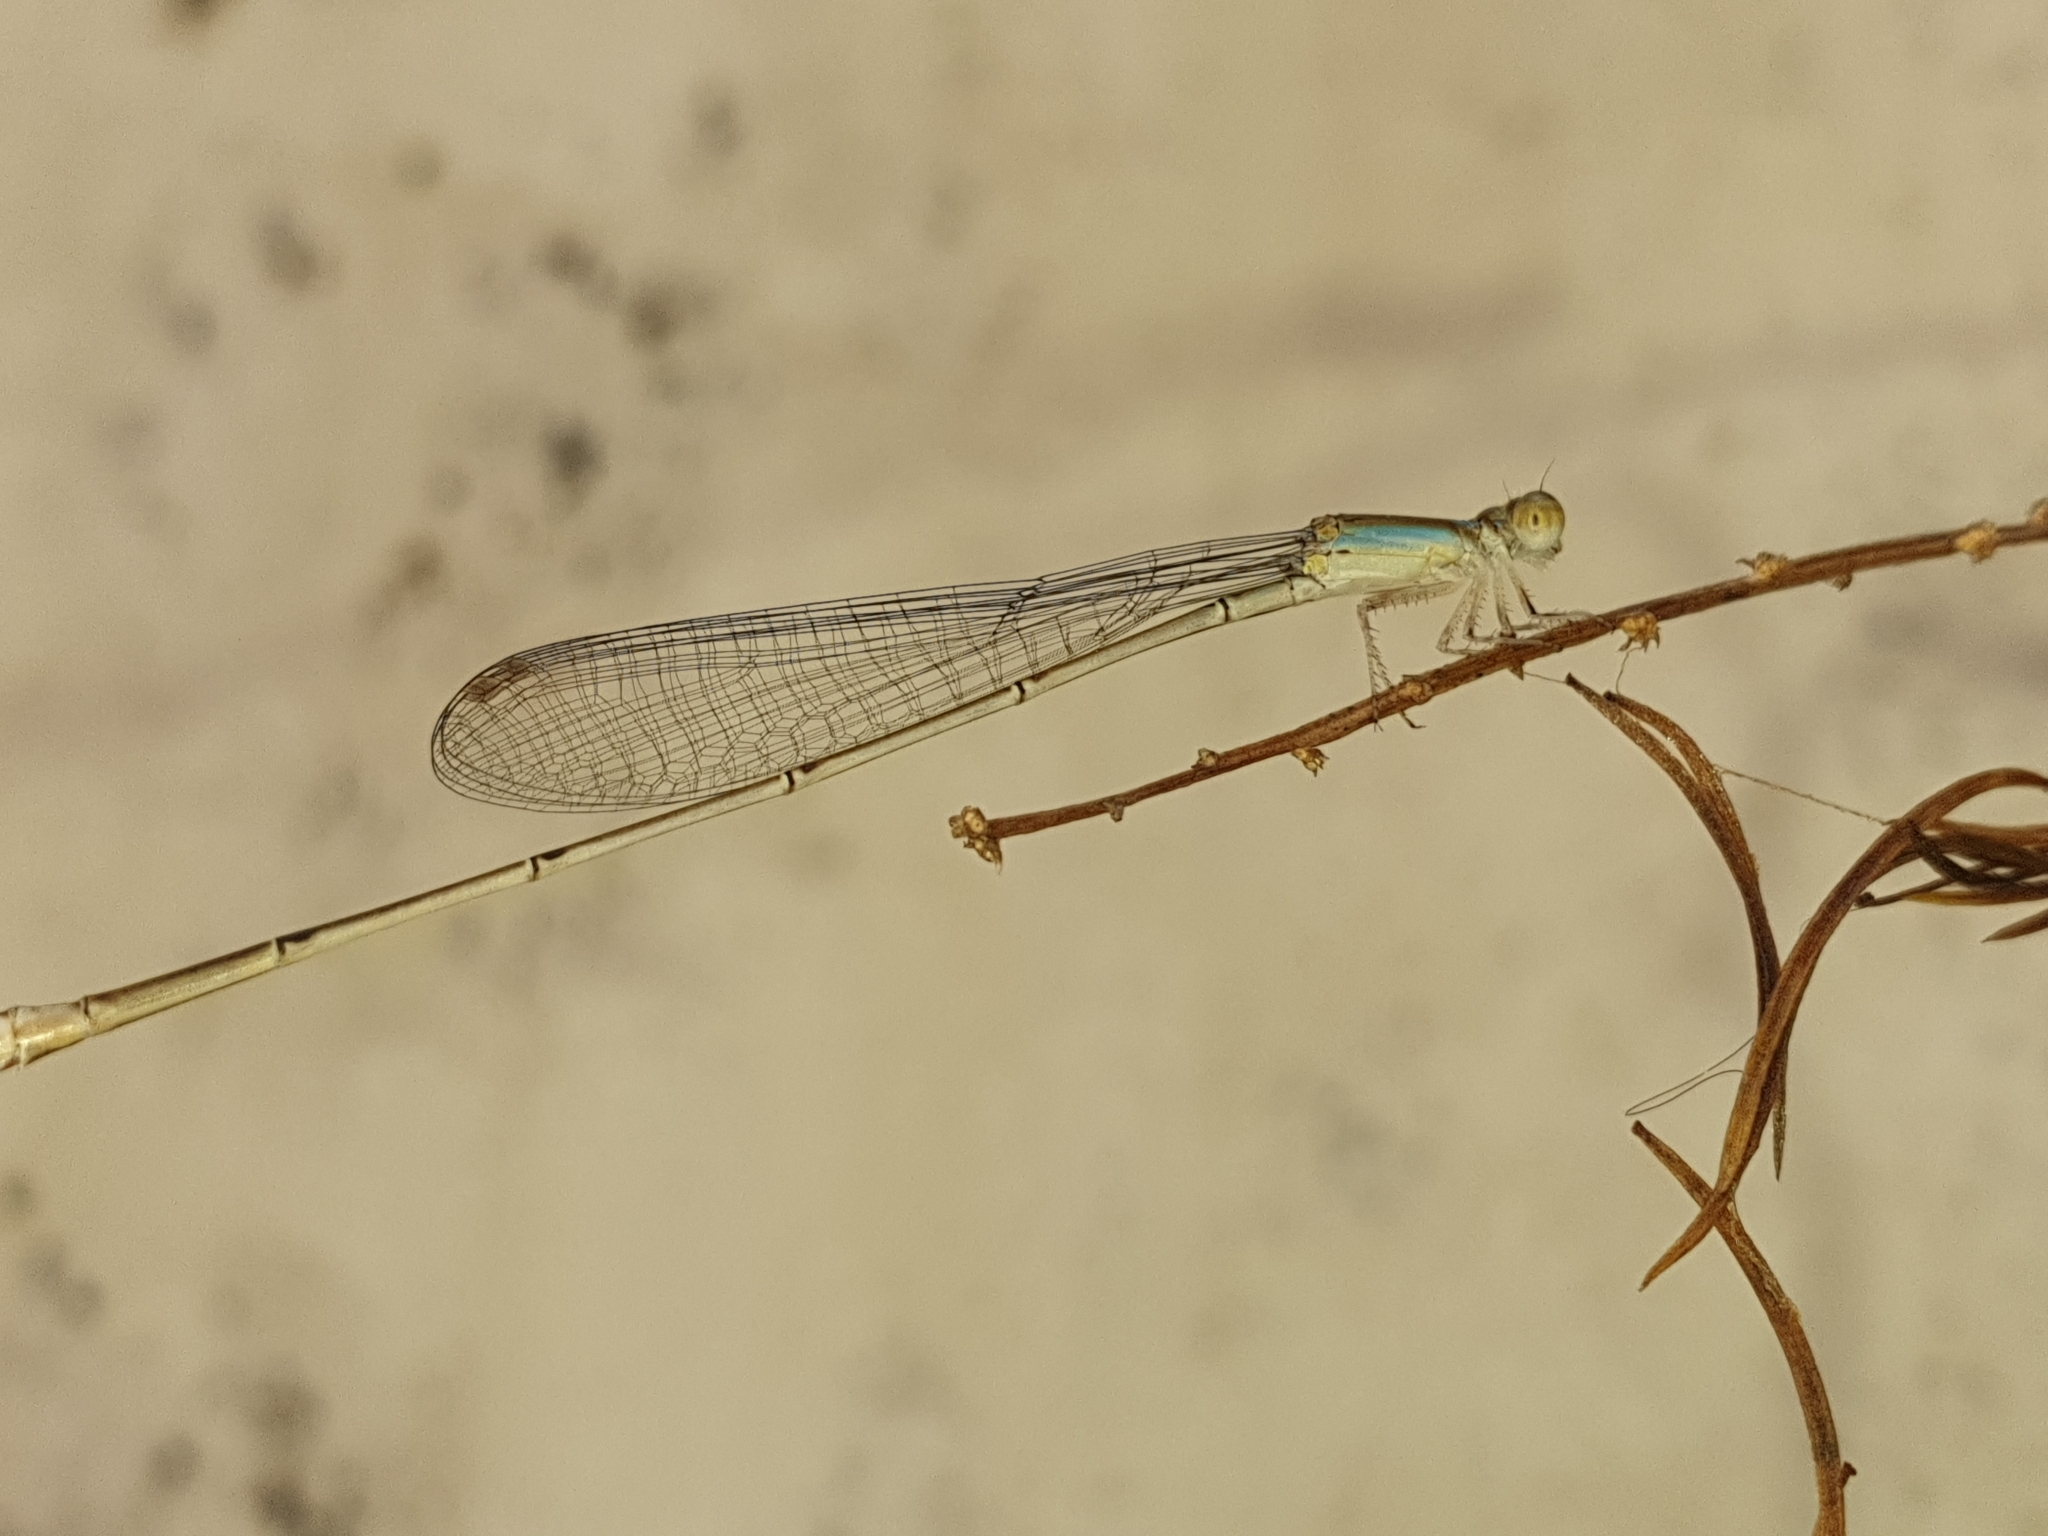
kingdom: Animalia
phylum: Arthropoda
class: Insecta
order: Odonata
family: Coenagrionidae
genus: Aciagrion
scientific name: Aciagrion pallidum
